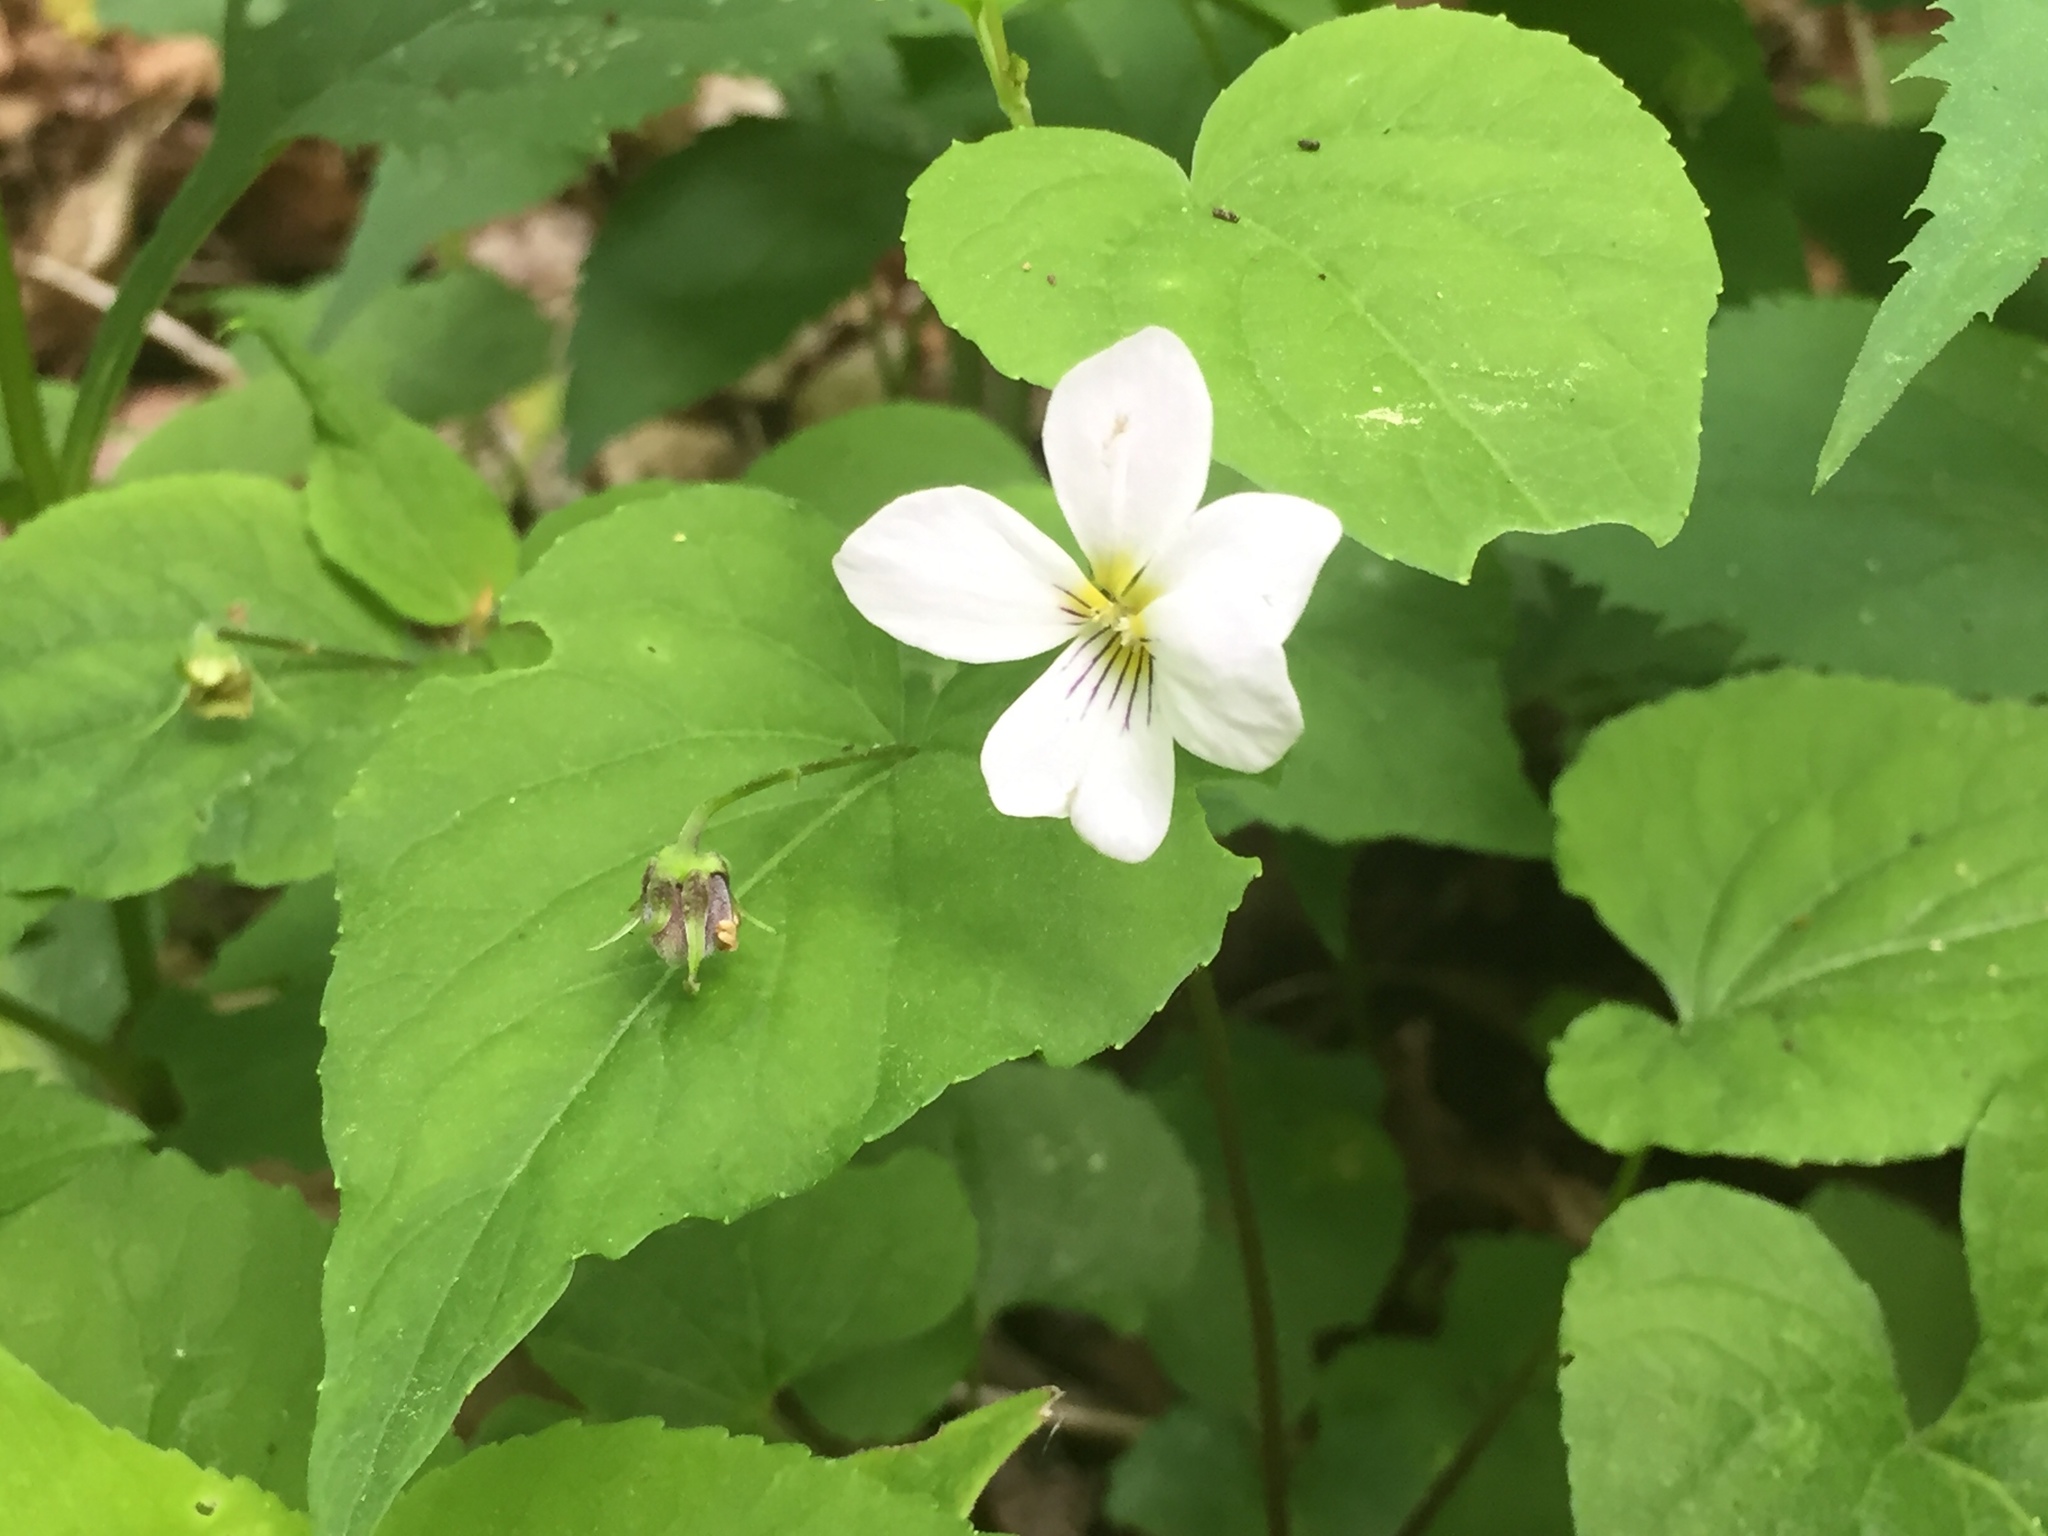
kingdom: Plantae
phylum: Tracheophyta
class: Magnoliopsida
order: Malpighiales
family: Violaceae
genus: Viola
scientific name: Viola canadensis
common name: Canada violet
